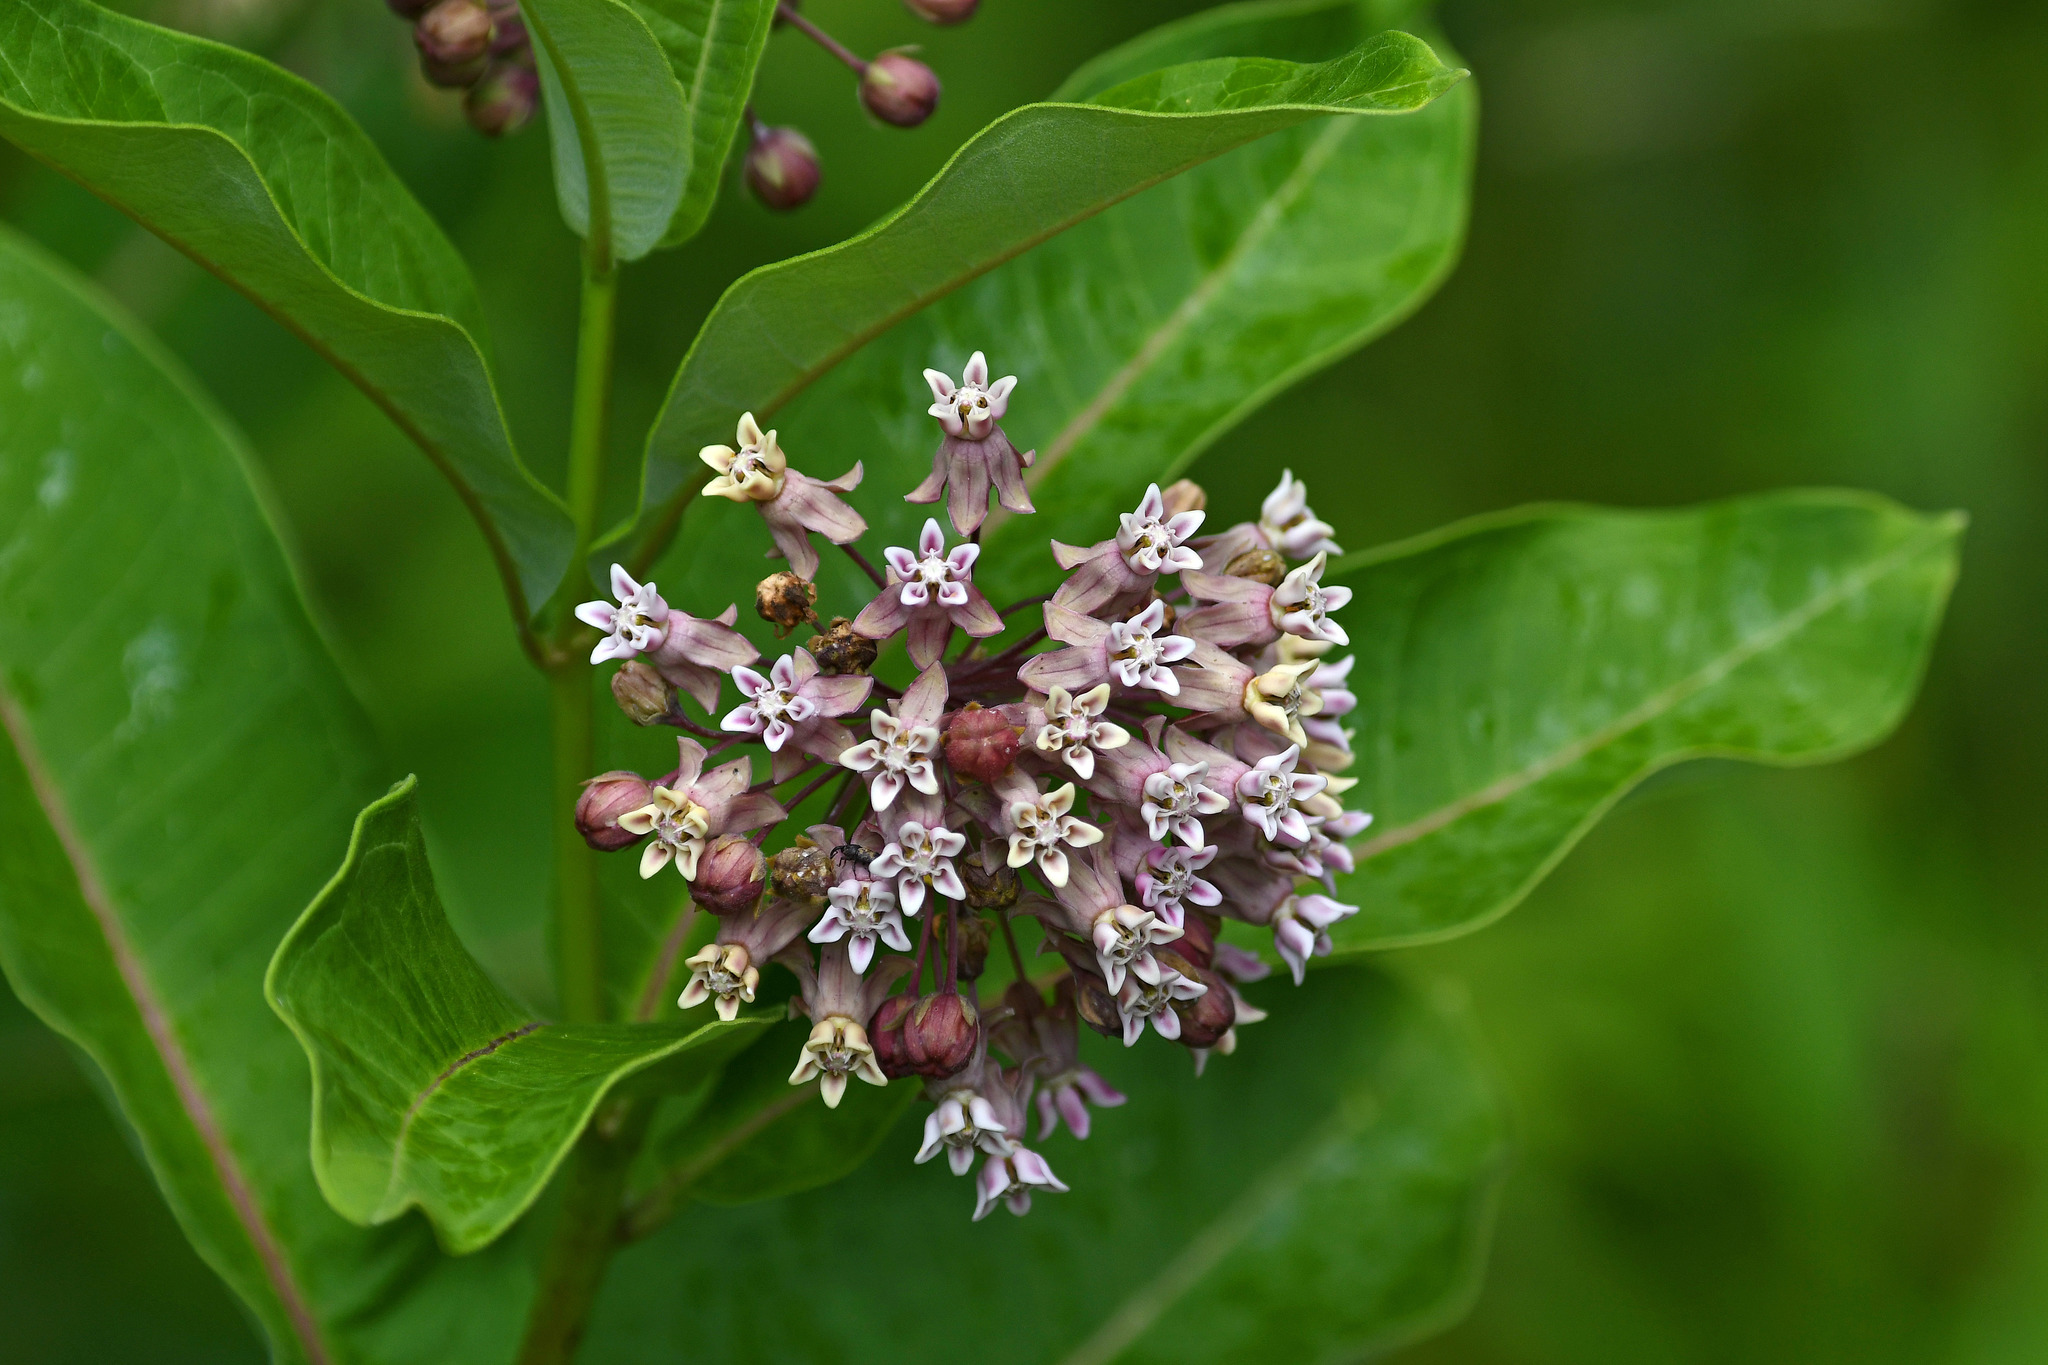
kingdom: Plantae
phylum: Tracheophyta
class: Magnoliopsida
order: Gentianales
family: Apocynaceae
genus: Asclepias
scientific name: Asclepias syriaca
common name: Common milkweed
